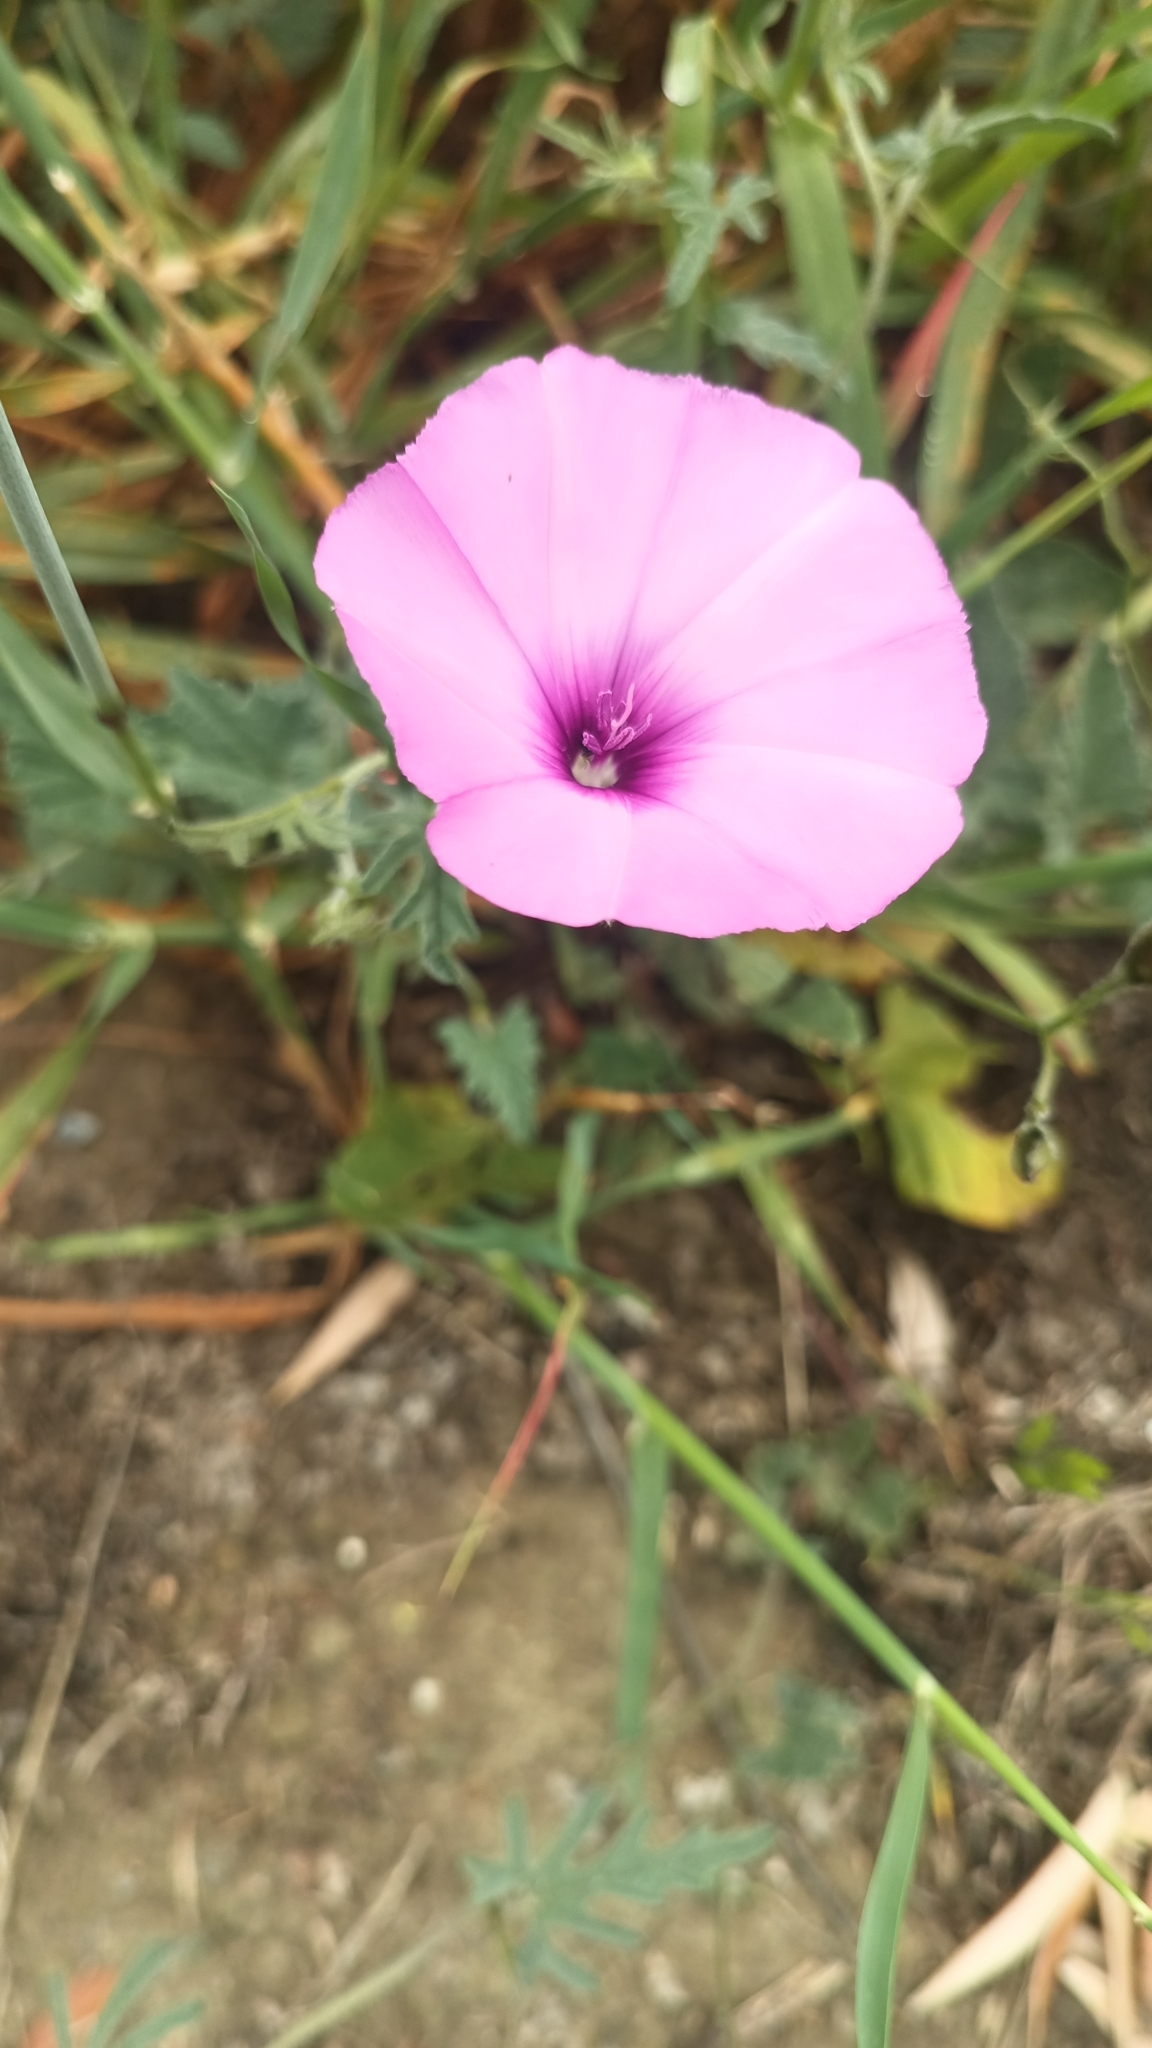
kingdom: Plantae
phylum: Tracheophyta
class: Magnoliopsida
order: Solanales
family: Convolvulaceae
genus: Convolvulus
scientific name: Convolvulus althaeoides
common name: Mallow bindweed
